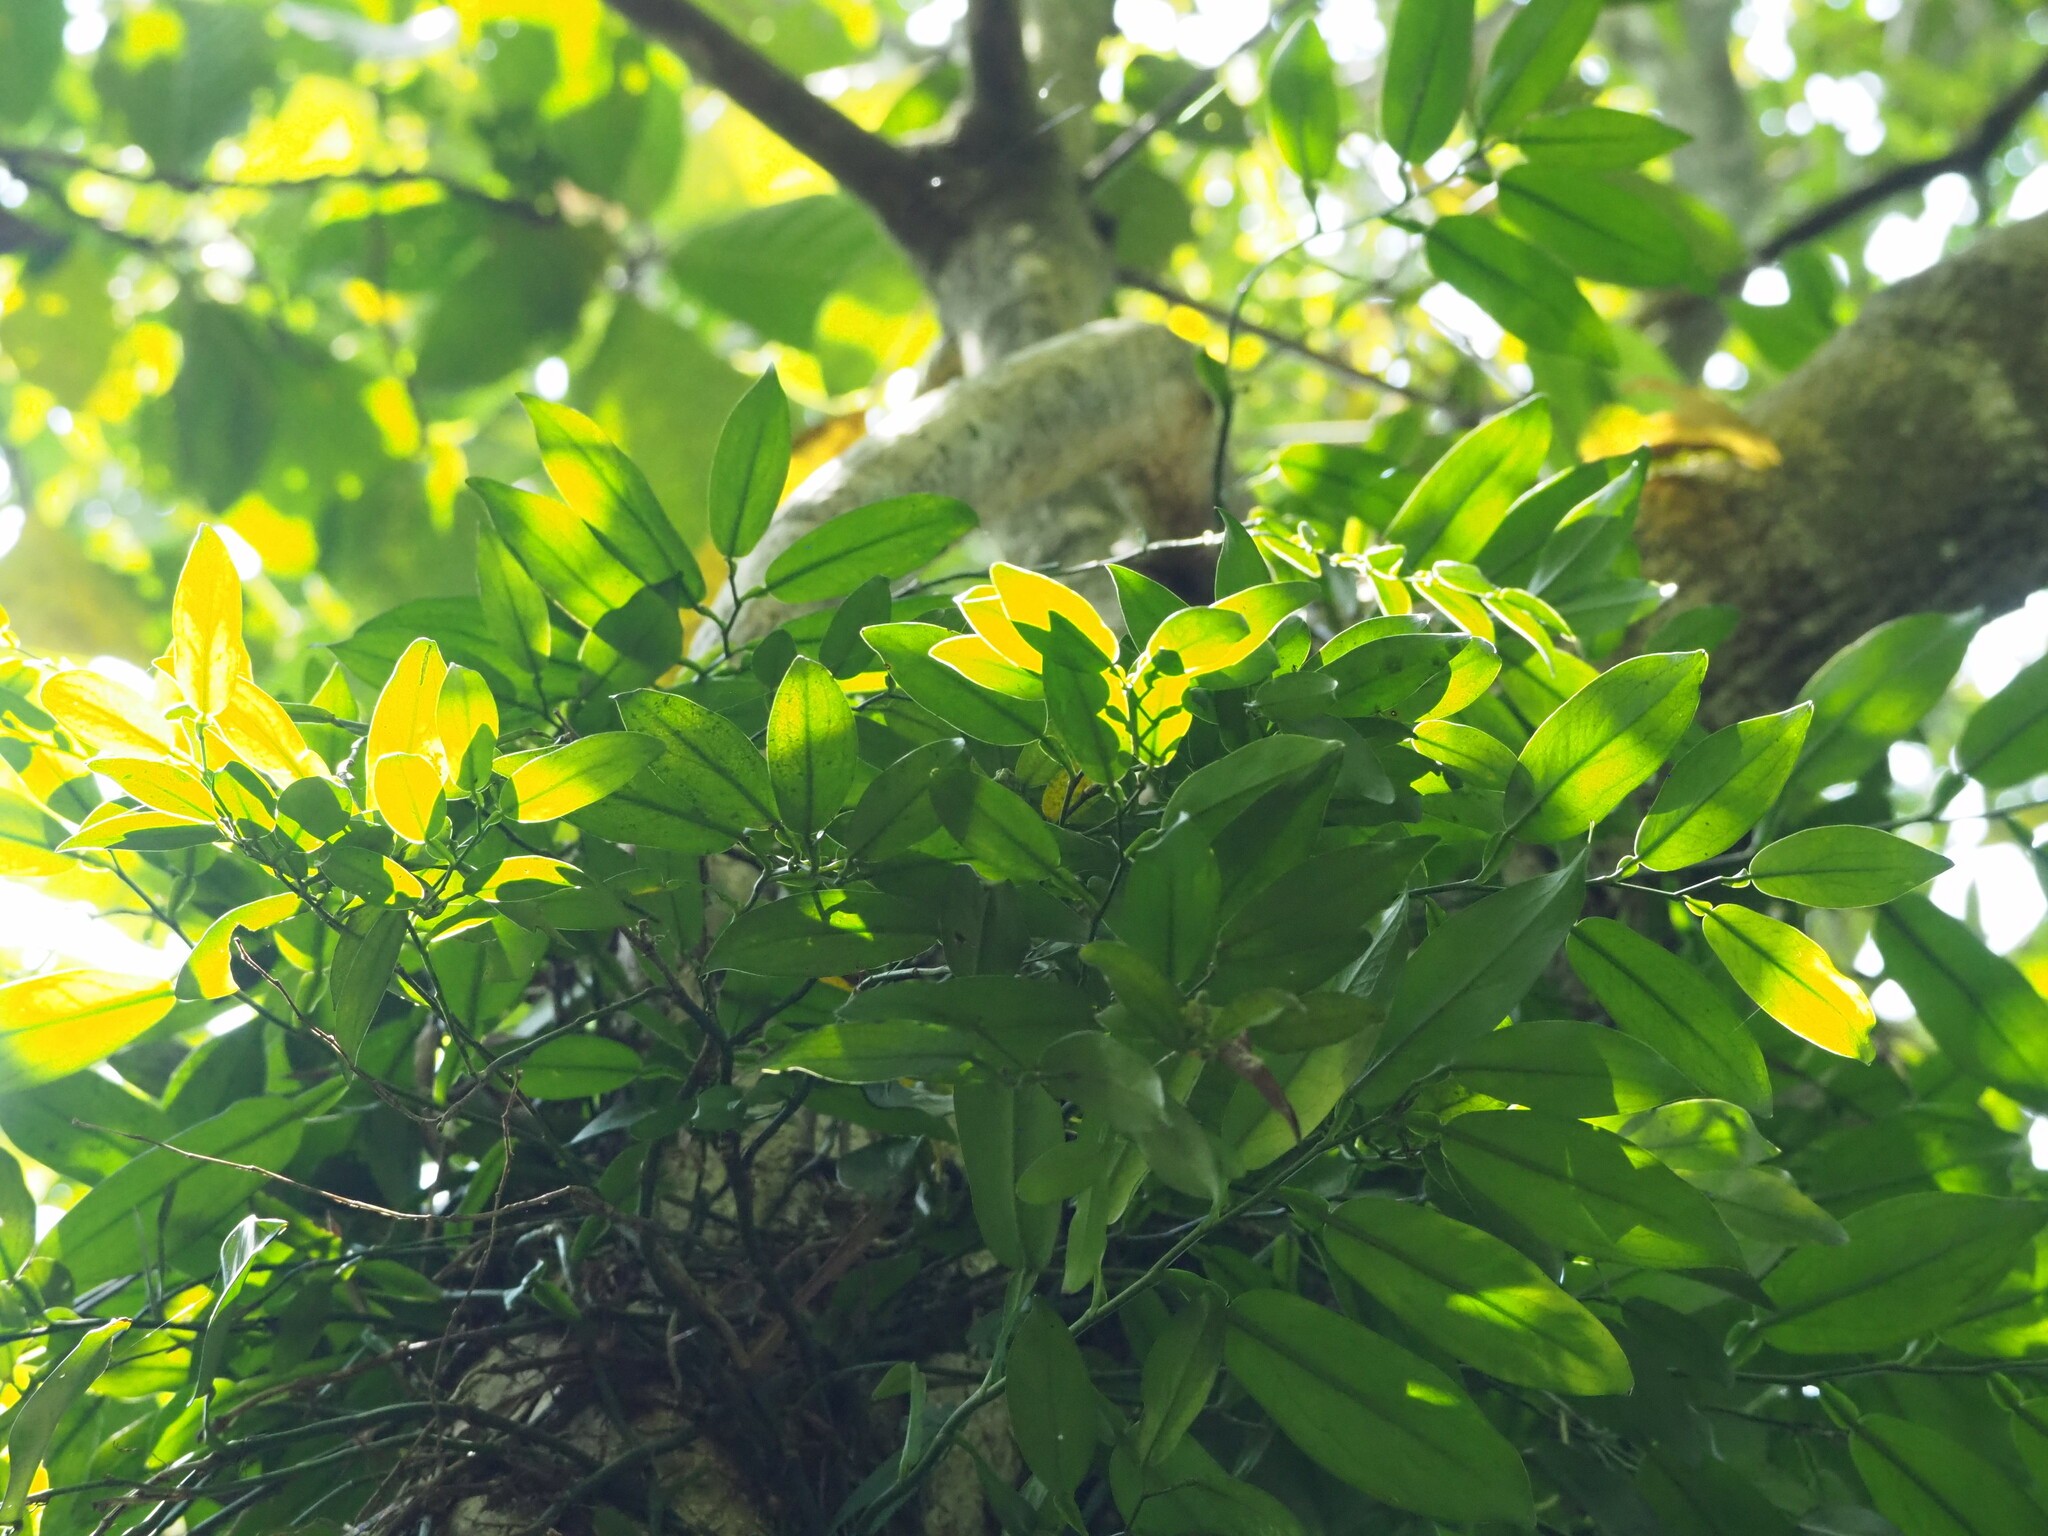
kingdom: Plantae
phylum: Tracheophyta
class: Liliopsida
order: Alismatales
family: Araceae
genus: Pothos
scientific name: Pothos chinensis
